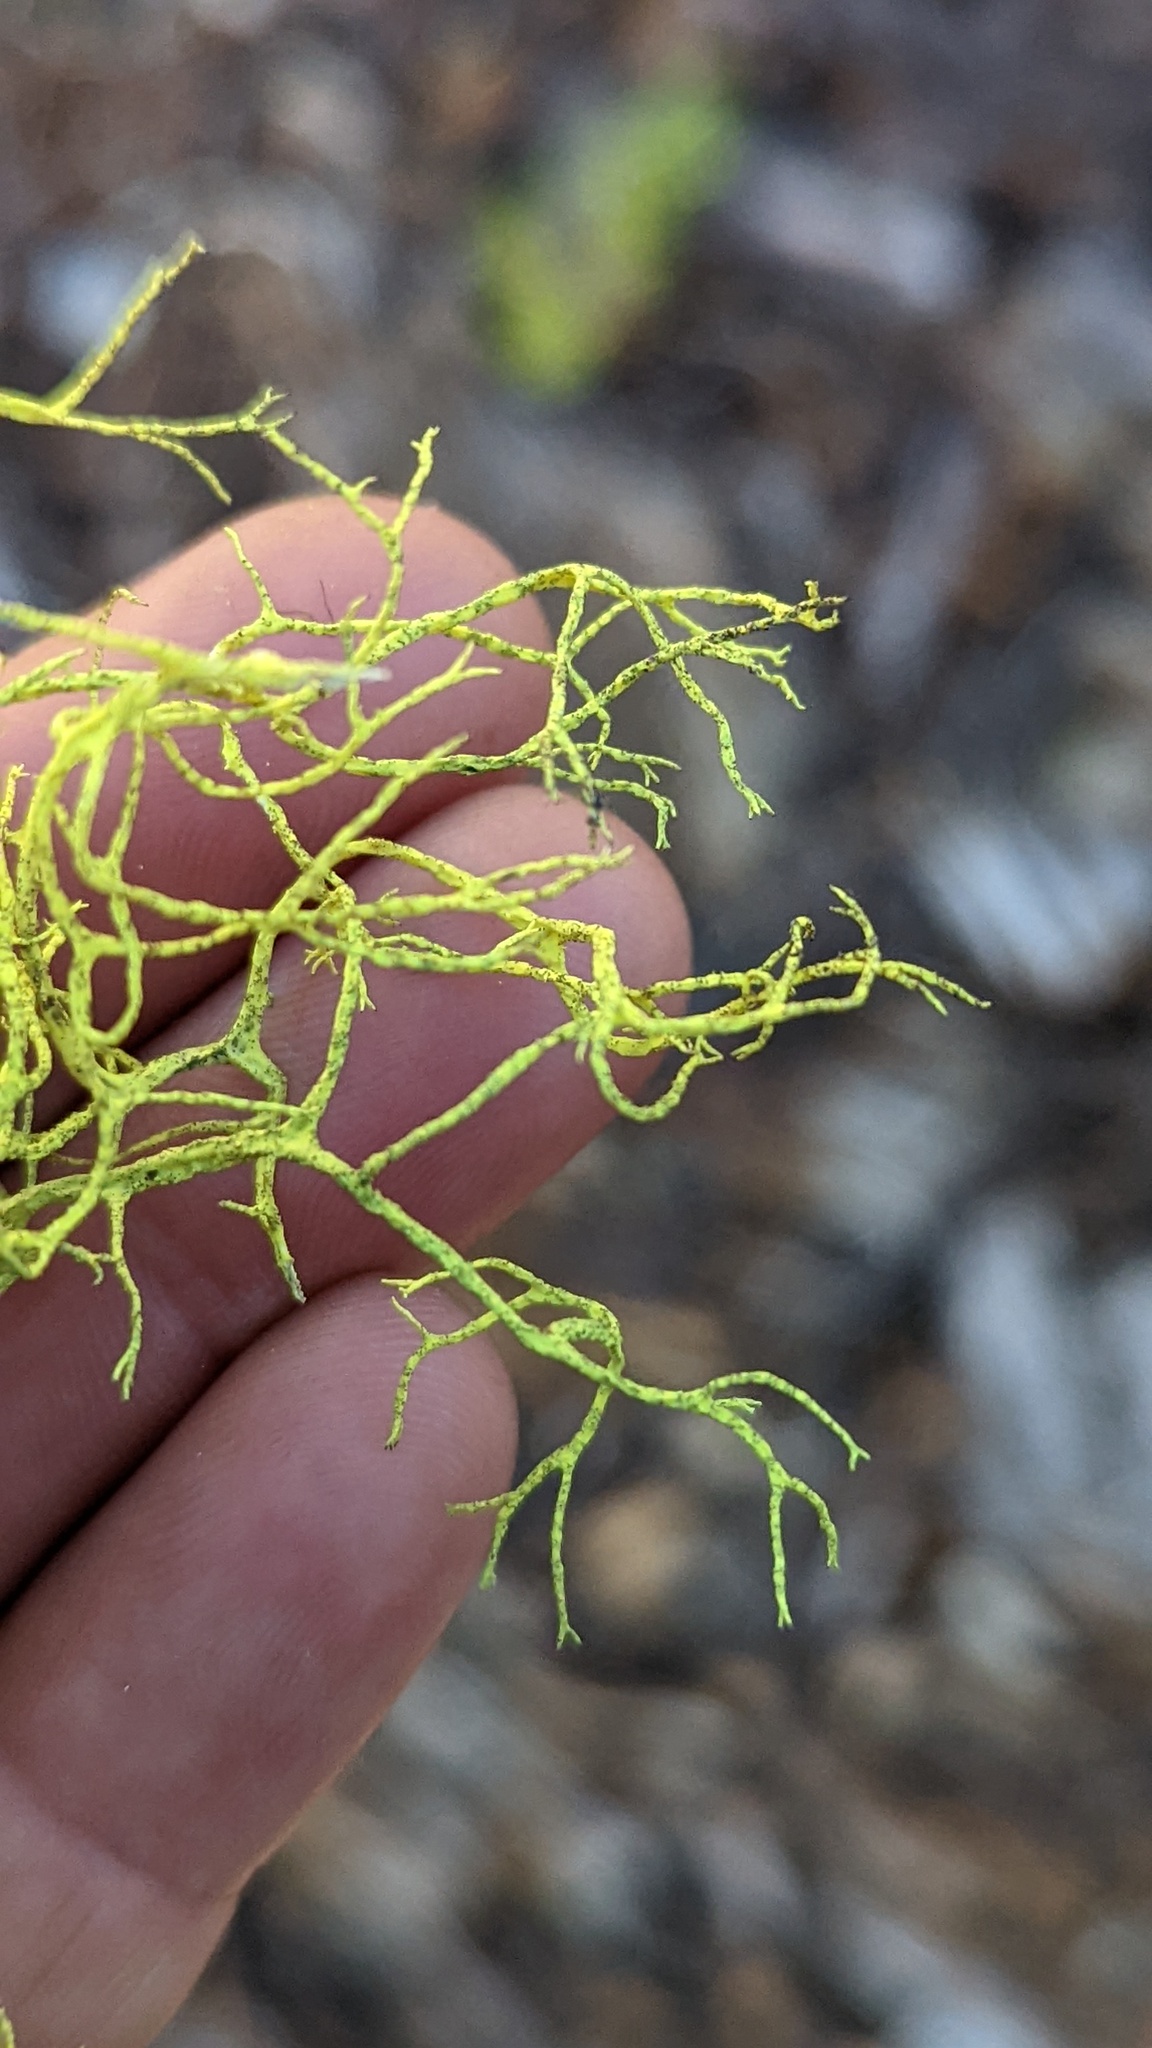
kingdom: Fungi
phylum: Ascomycota
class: Lecanoromycetes
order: Lecanorales
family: Parmeliaceae
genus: Letharia
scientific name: Letharia vulpina
